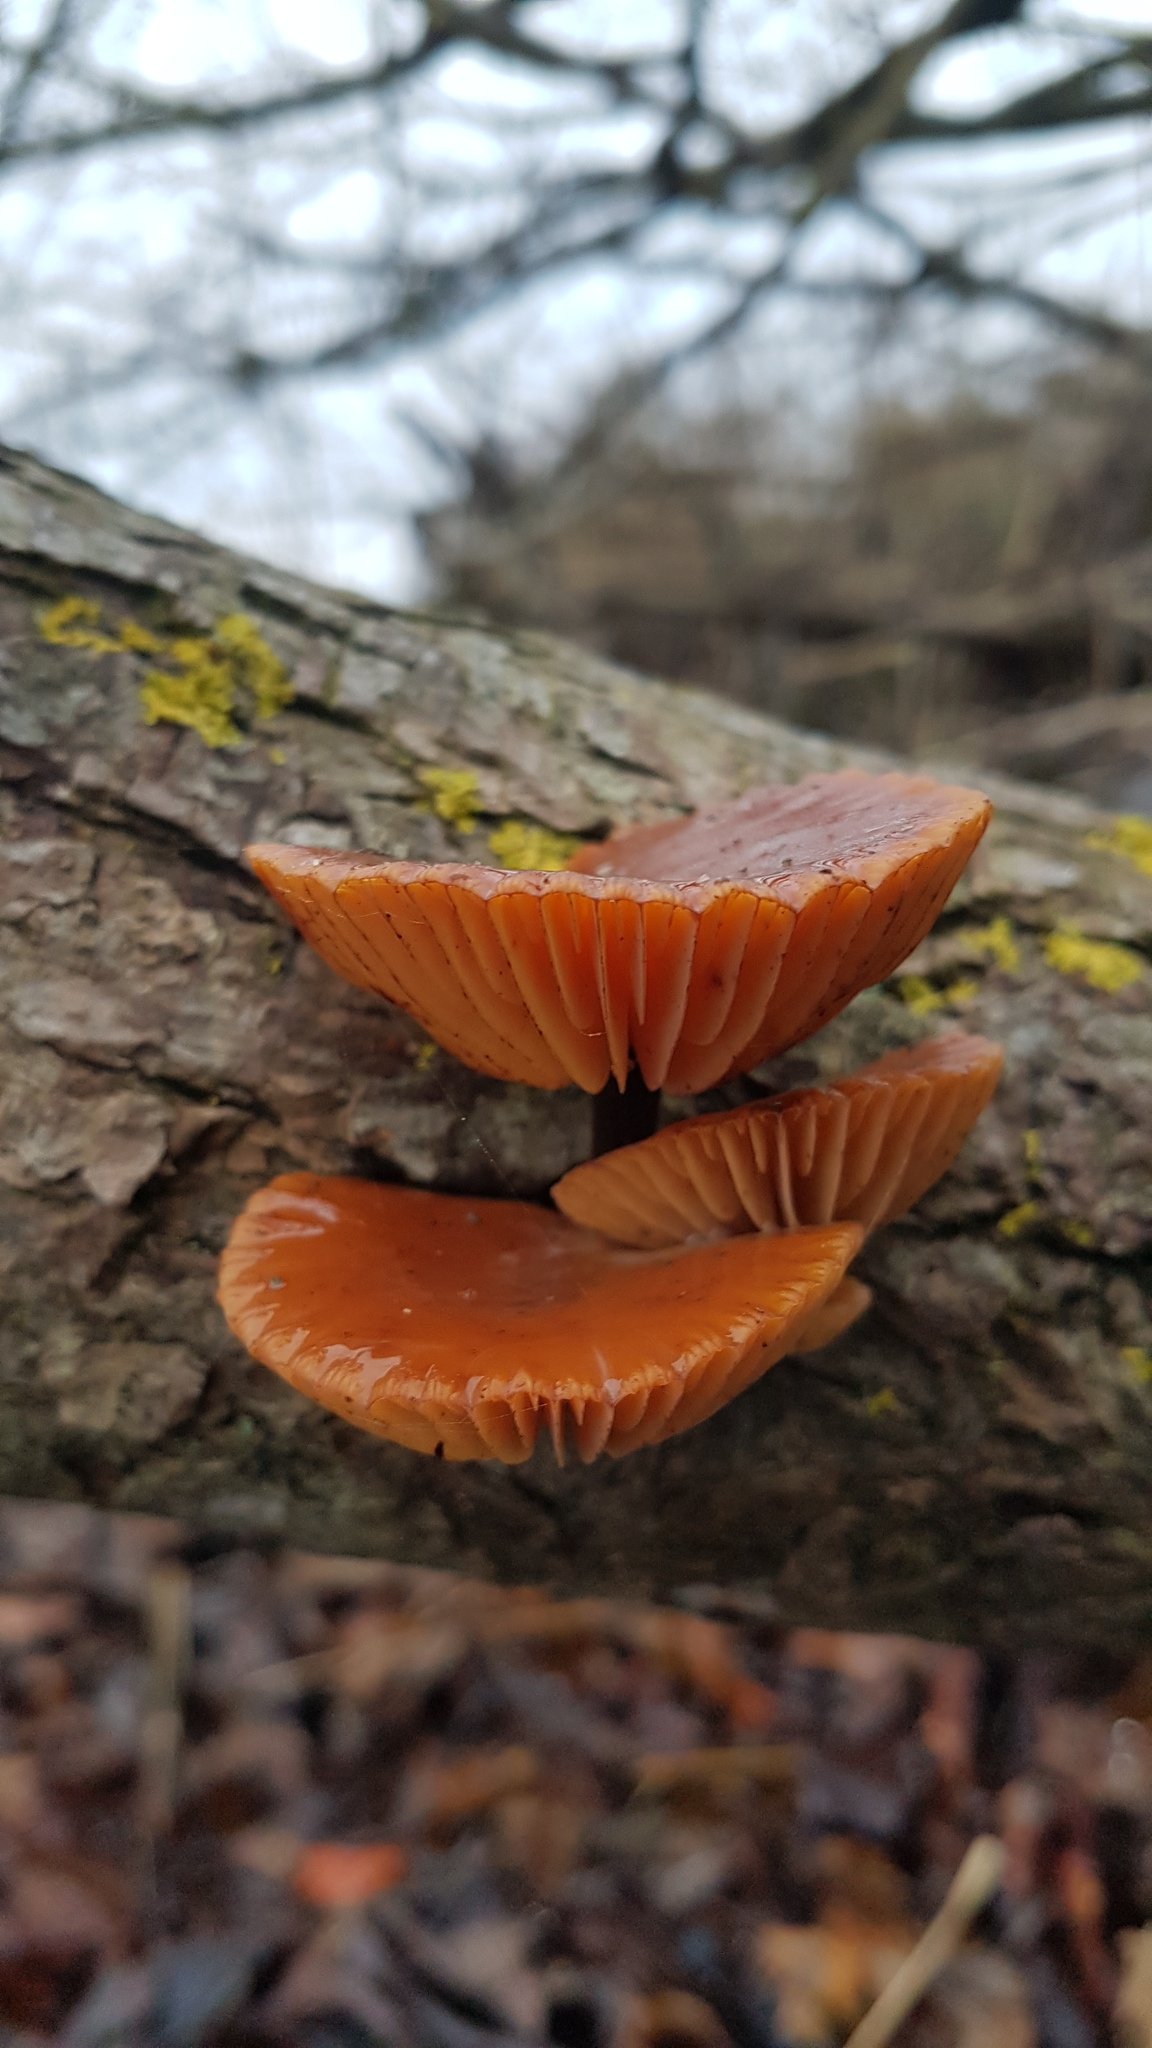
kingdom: Fungi
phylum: Basidiomycota
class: Agaricomycetes
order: Agaricales
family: Physalacriaceae
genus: Flammulina
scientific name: Flammulina
